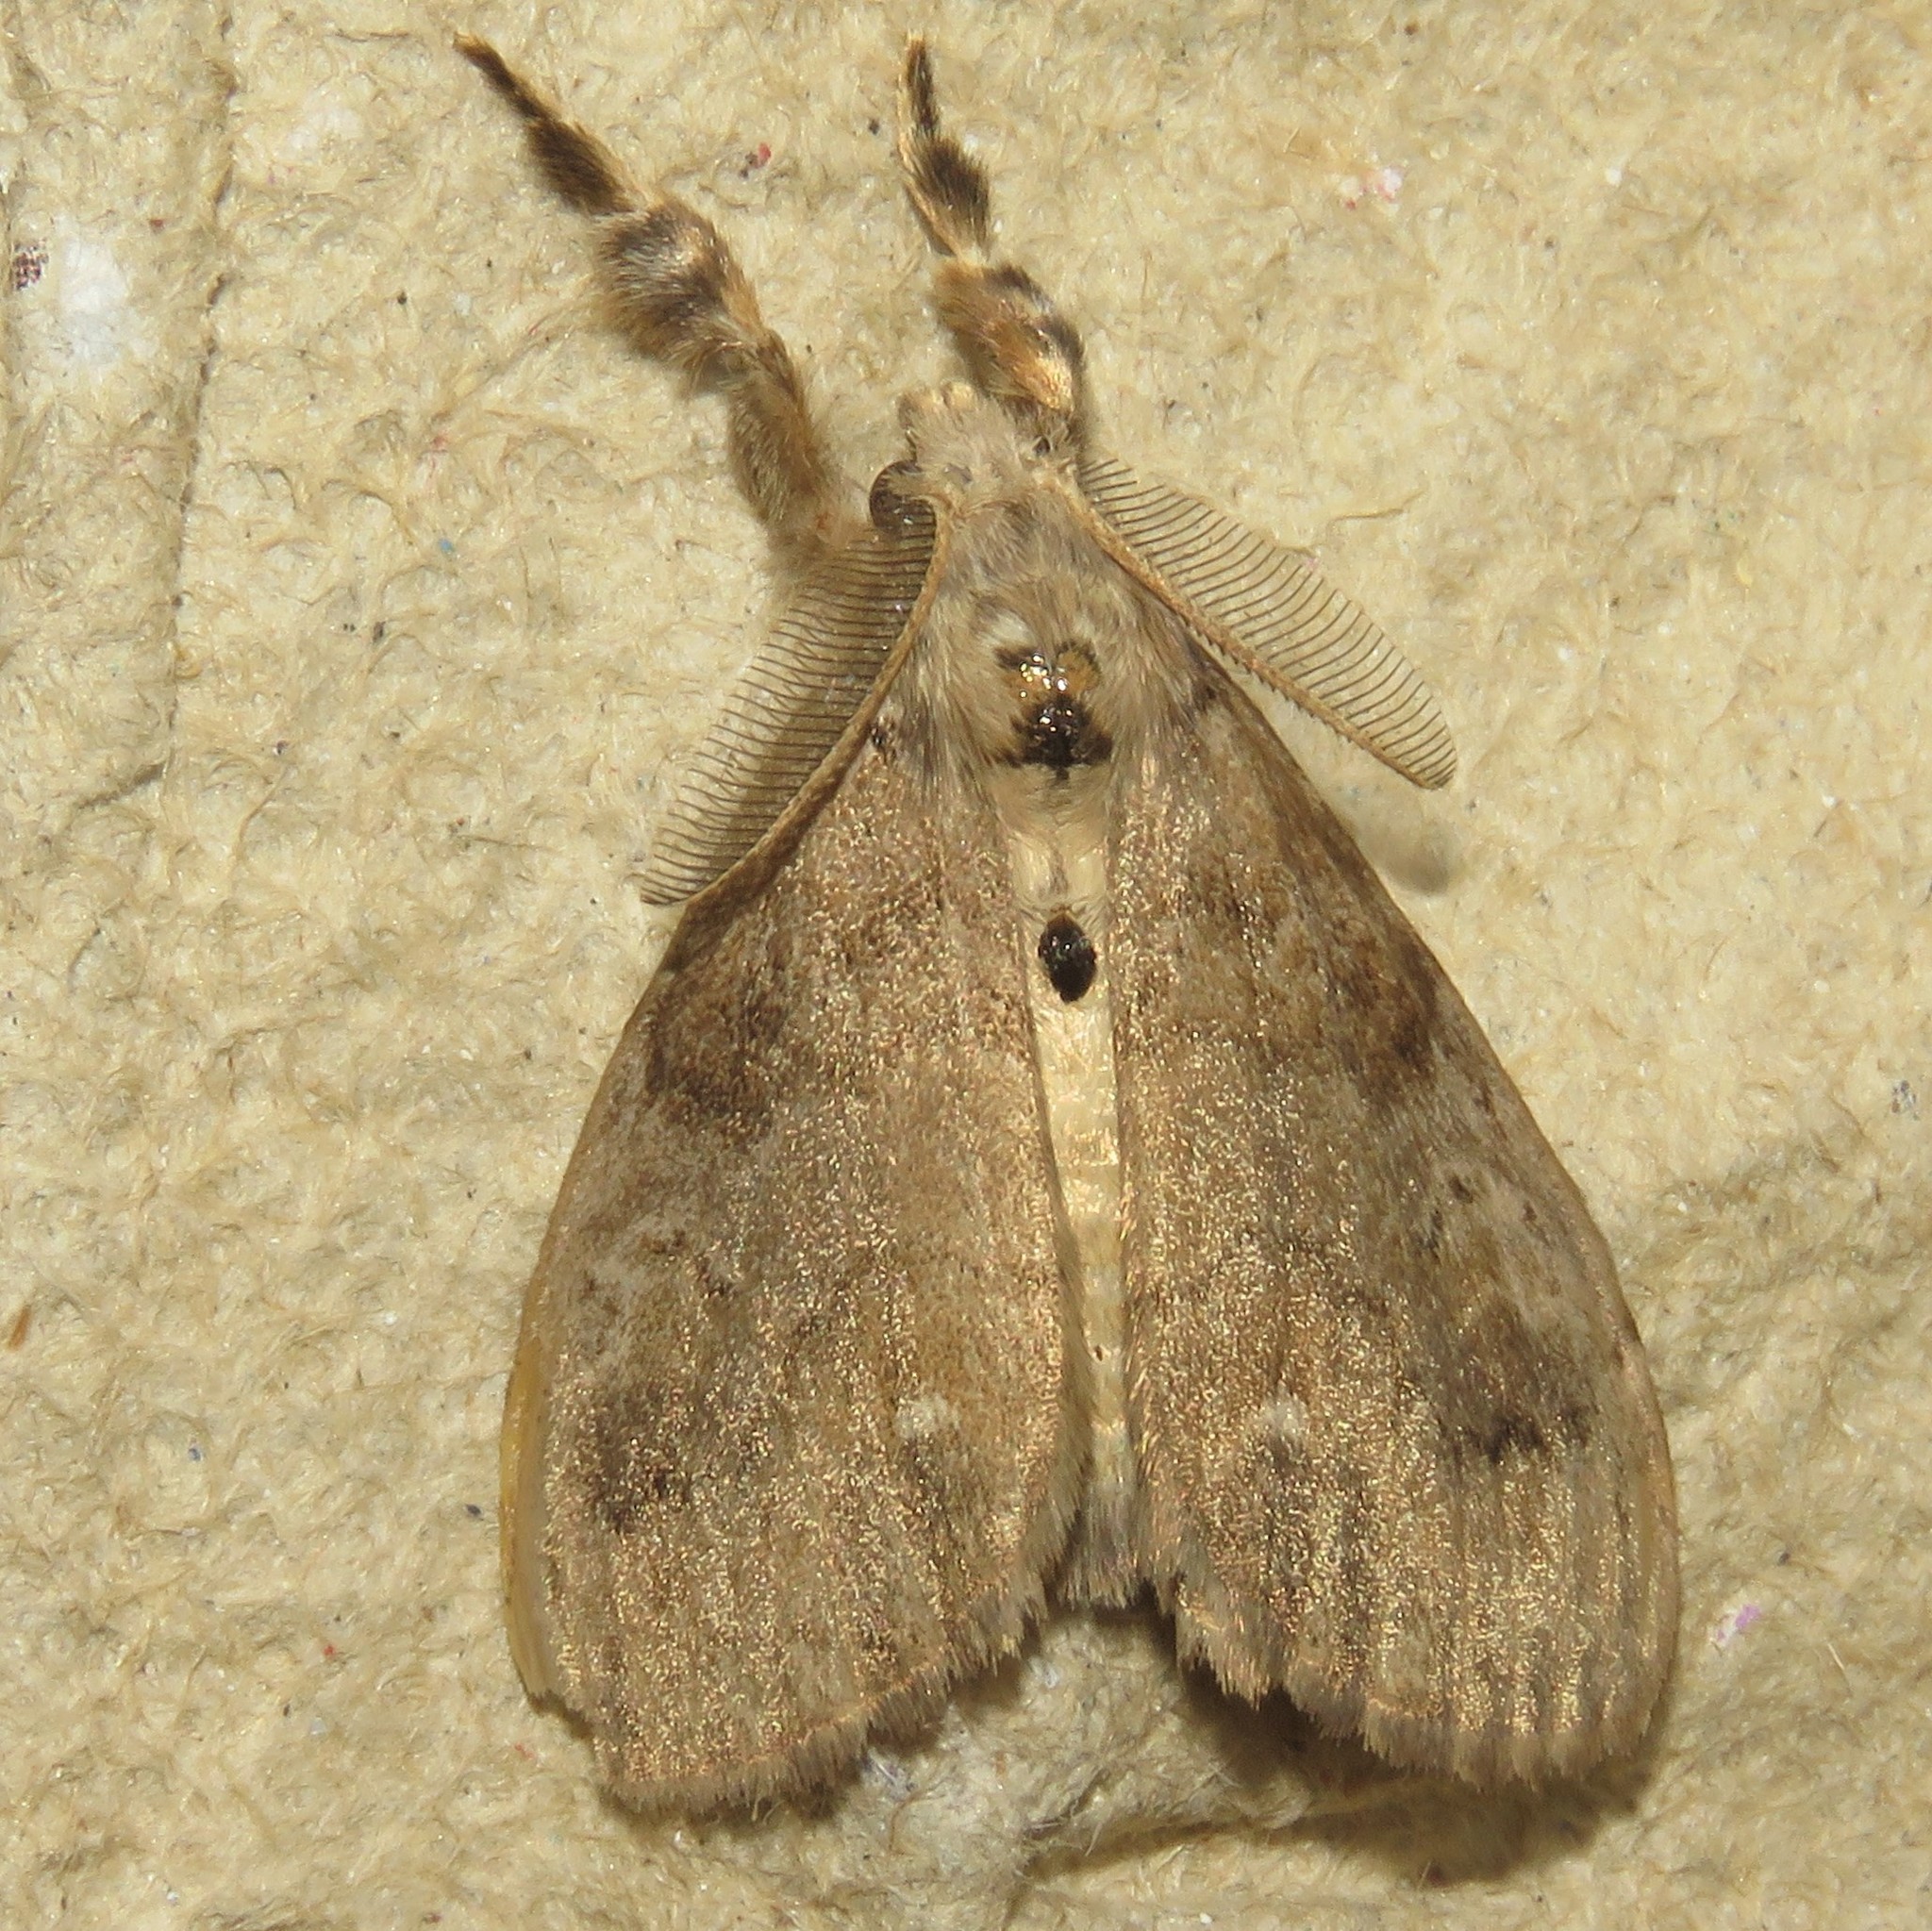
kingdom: Animalia
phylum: Arthropoda
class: Insecta
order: Lepidoptera
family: Erebidae
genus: Orgyia
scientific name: Orgyia leucostigma
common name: White-marked tussock moth
